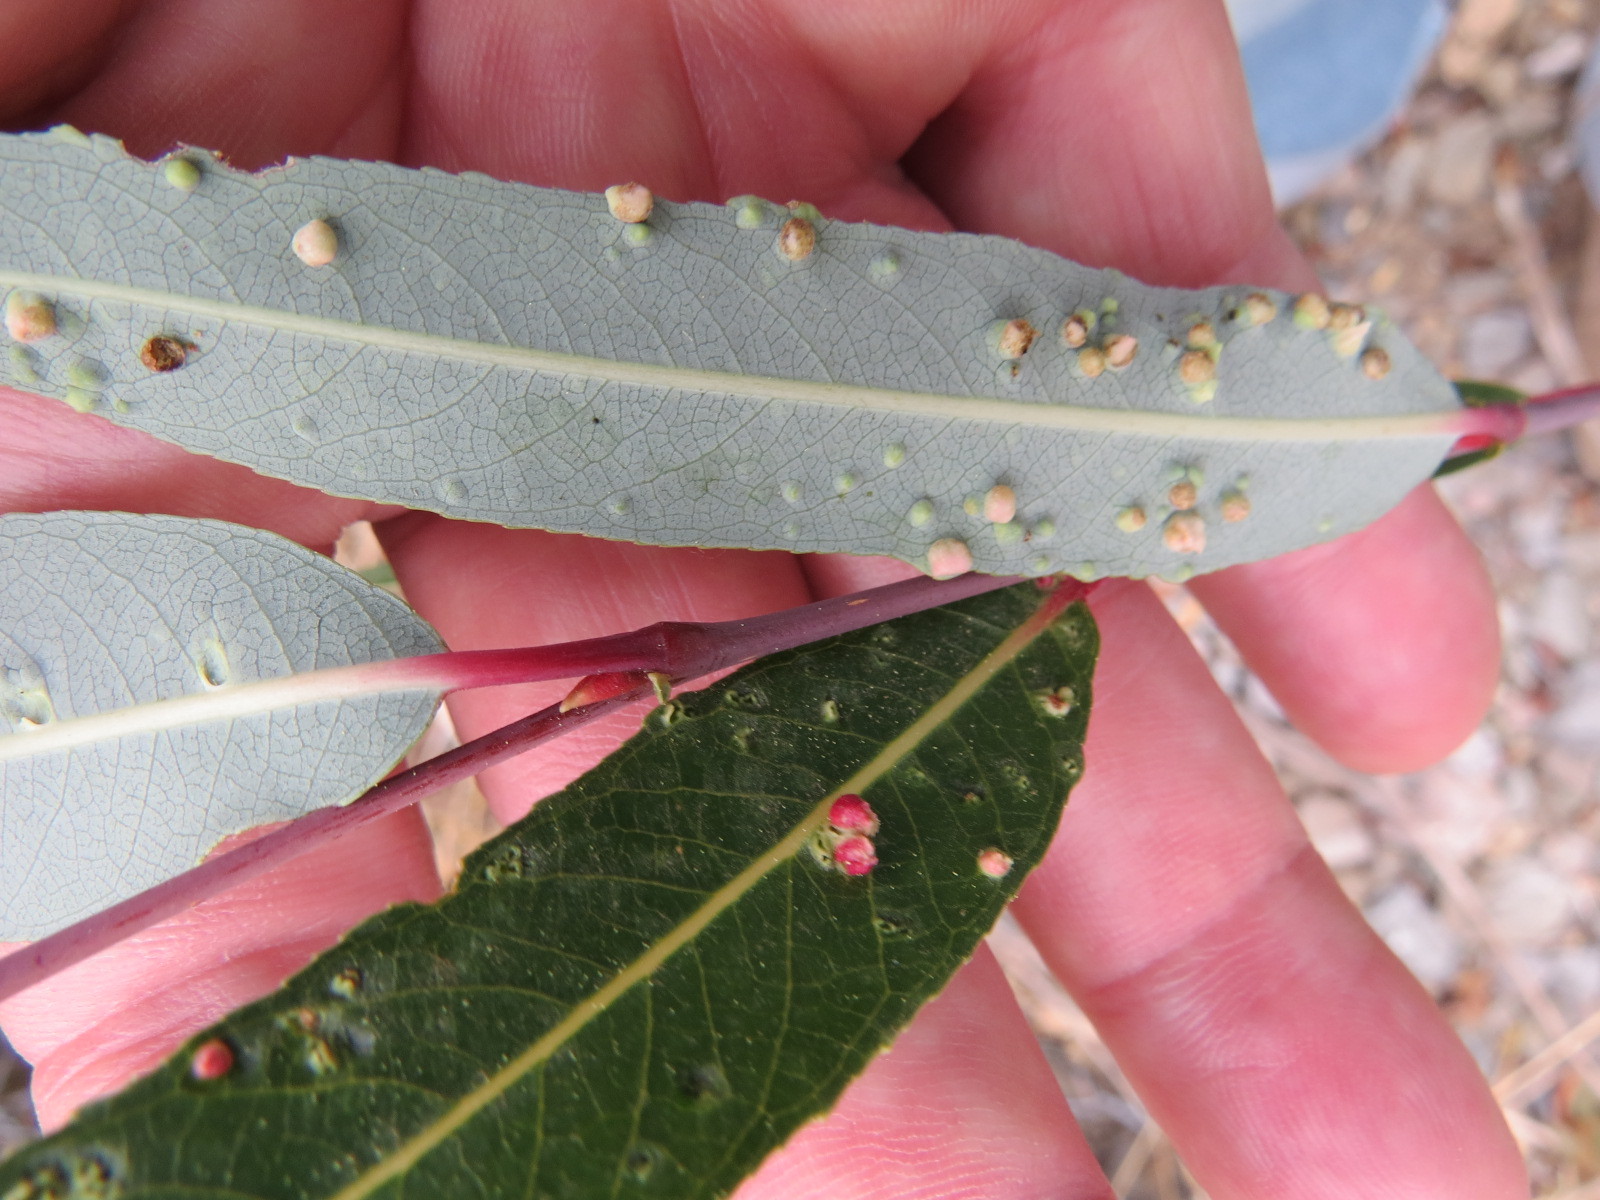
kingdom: Animalia
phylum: Arthropoda
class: Arachnida
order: Trombidiformes
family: Eriophyidae
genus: Aculus
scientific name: Aculus tetanothrix
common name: Willow bead gall mite
